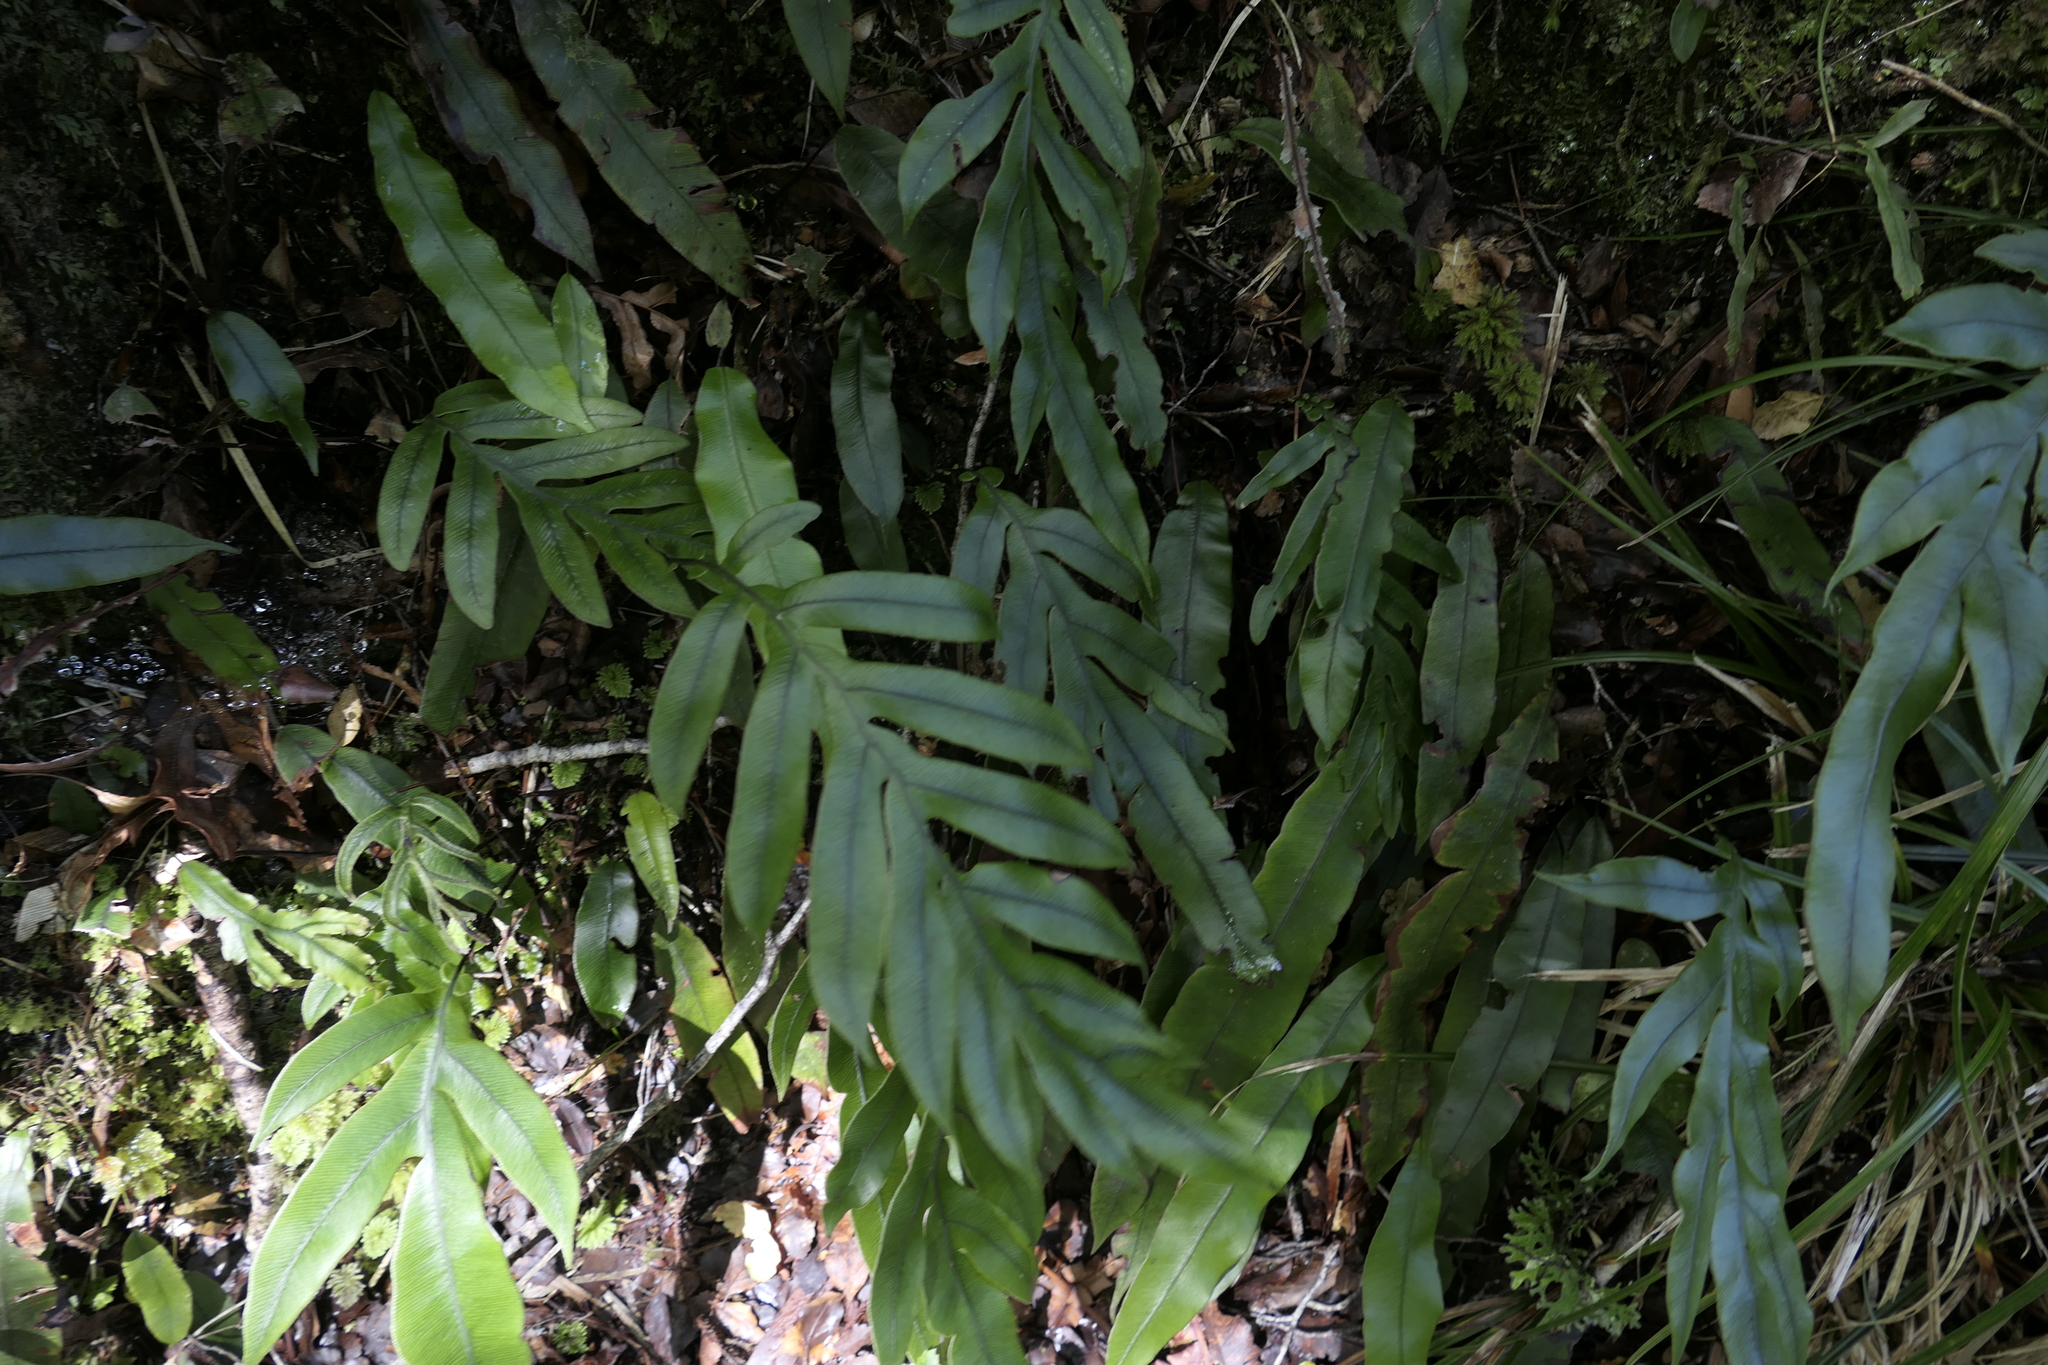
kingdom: Plantae
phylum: Tracheophyta
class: Polypodiopsida
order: Polypodiales
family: Blechnaceae
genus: Austroblechnum
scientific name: Austroblechnum colensoi
